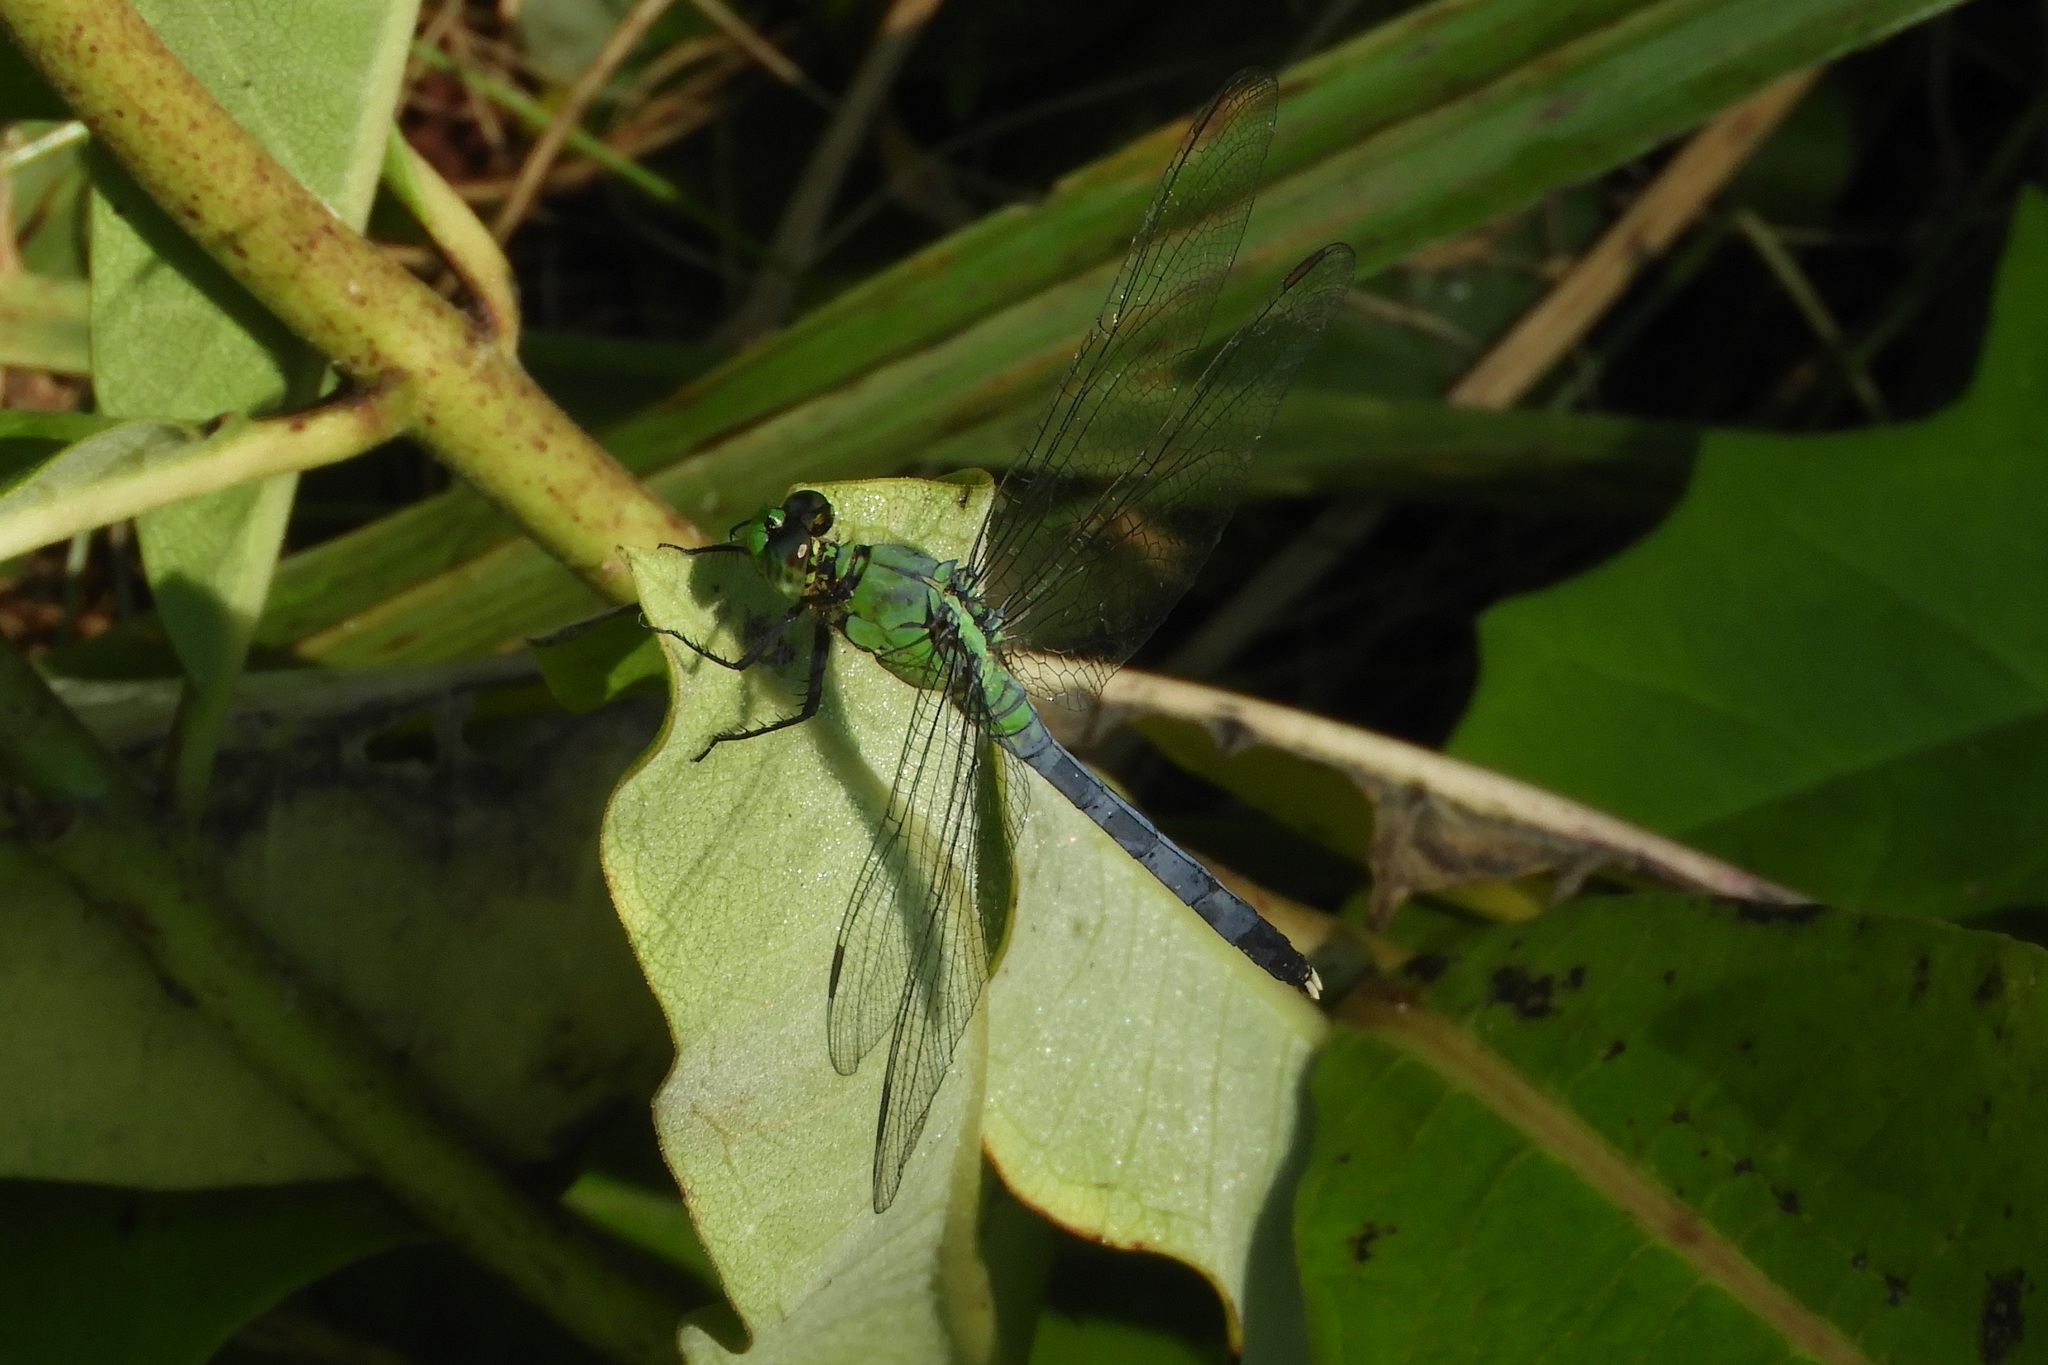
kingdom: Animalia
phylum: Arthropoda
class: Insecta
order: Odonata
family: Libellulidae
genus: Erythemis
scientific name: Erythemis simplicicollis
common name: Eastern pondhawk
